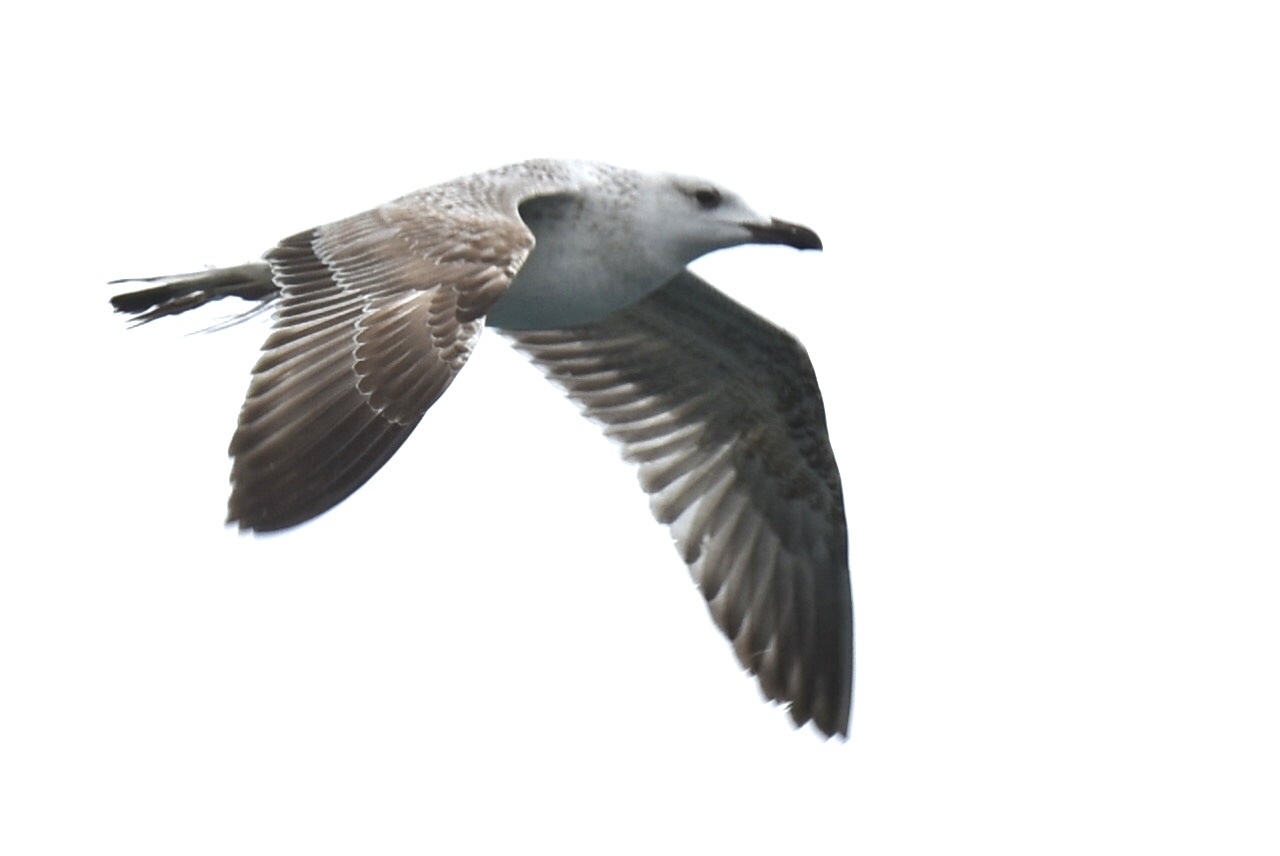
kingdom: Animalia
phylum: Chordata
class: Aves
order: Charadriiformes
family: Laridae
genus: Larus
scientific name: Larus michahellis
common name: Yellow-legged gull
